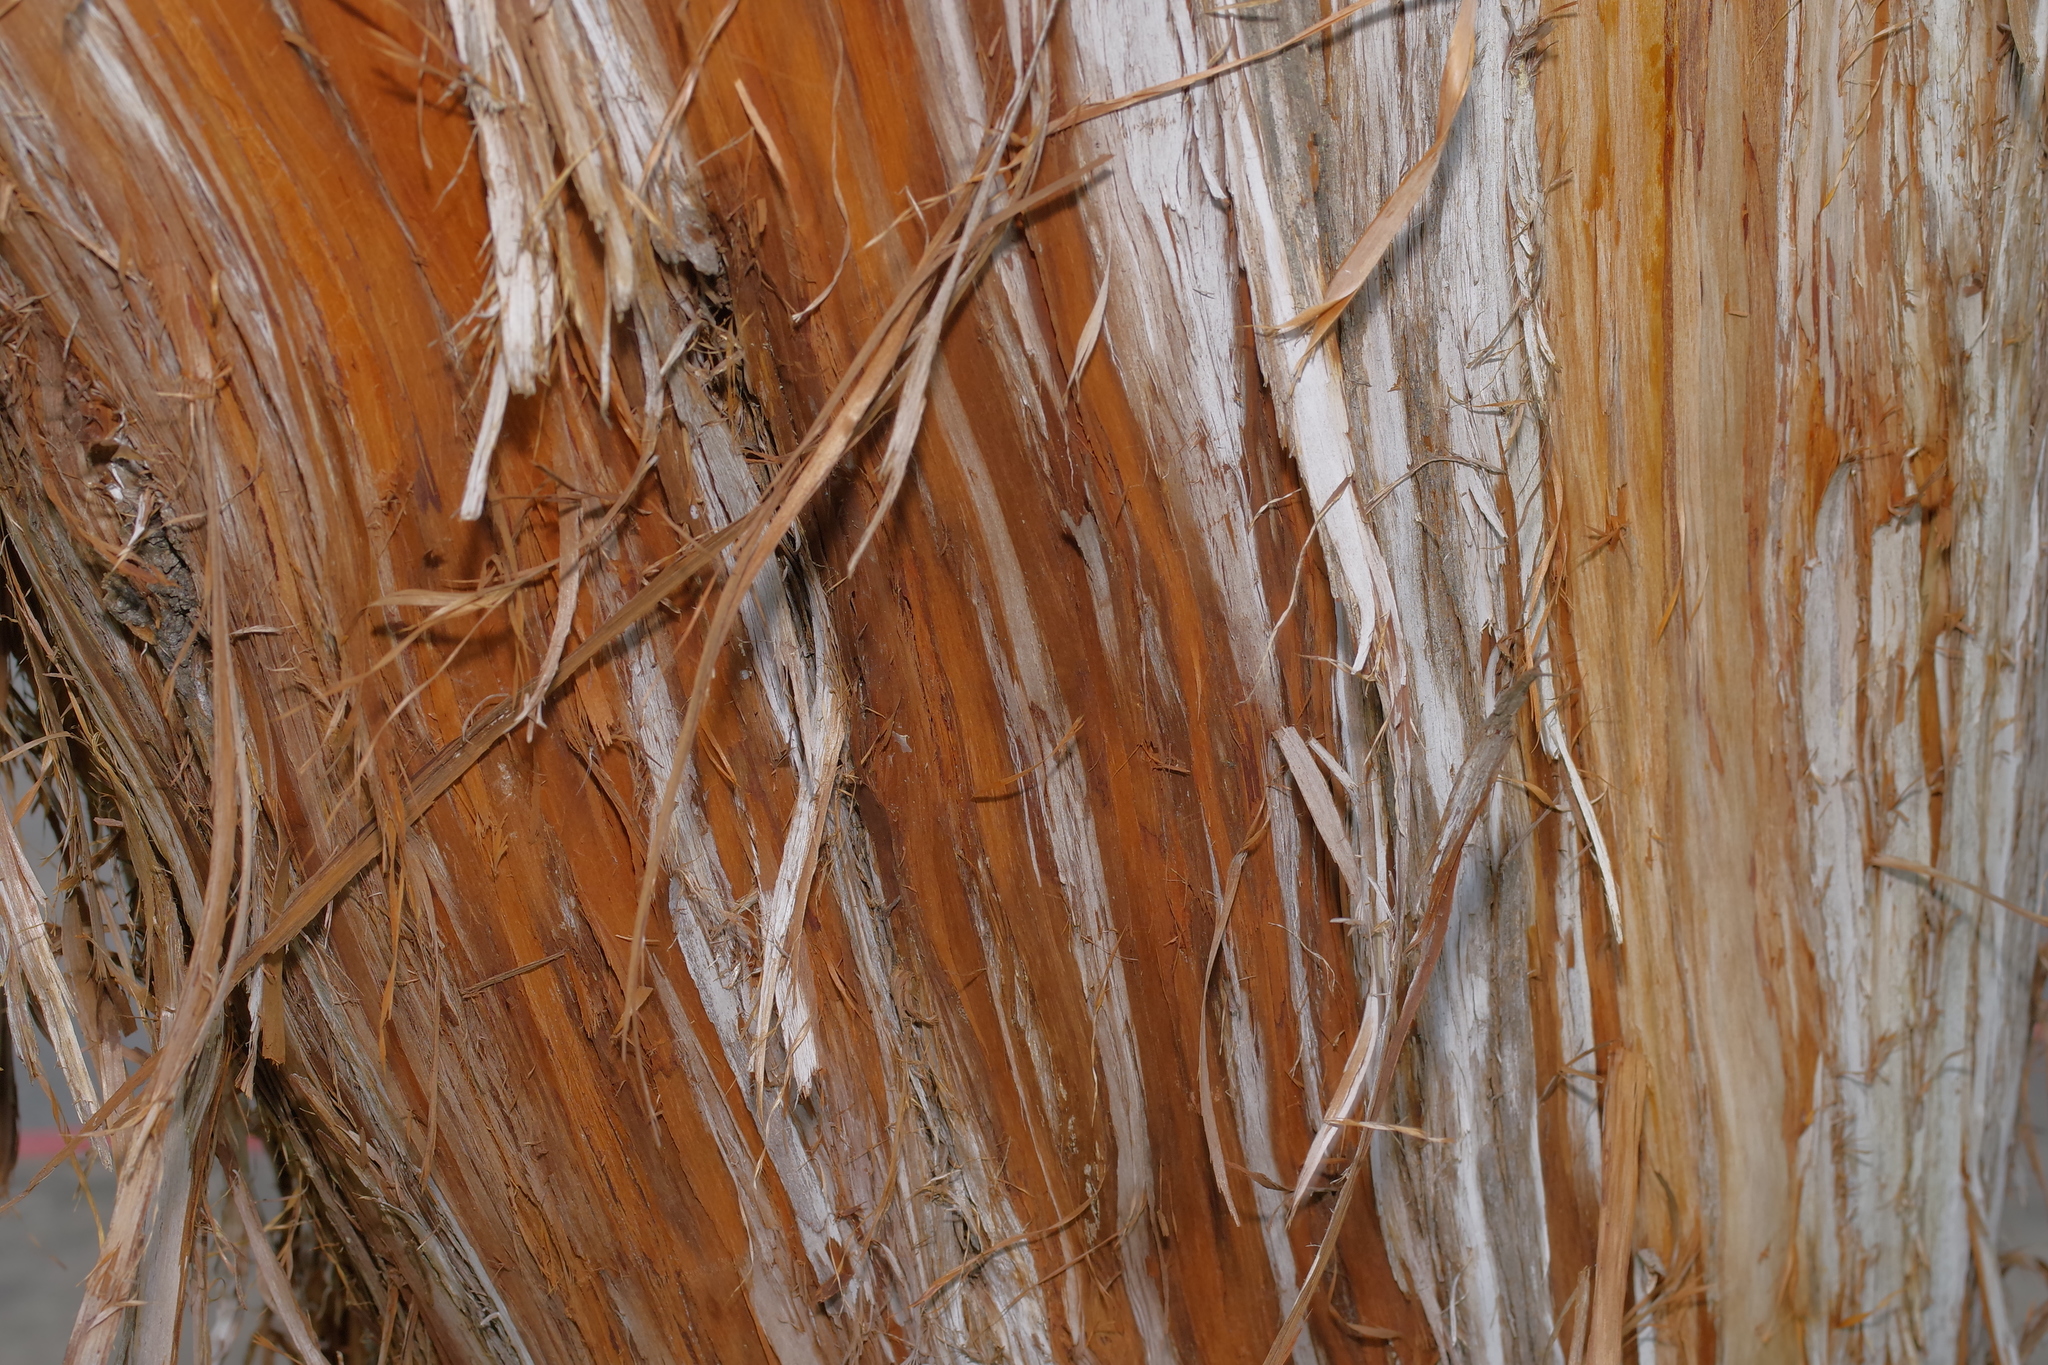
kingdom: Plantae
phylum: Tracheophyta
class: Pinopsida
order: Pinales
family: Cupressaceae
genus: Juniperus
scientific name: Juniperus ashei
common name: Mexican juniper
